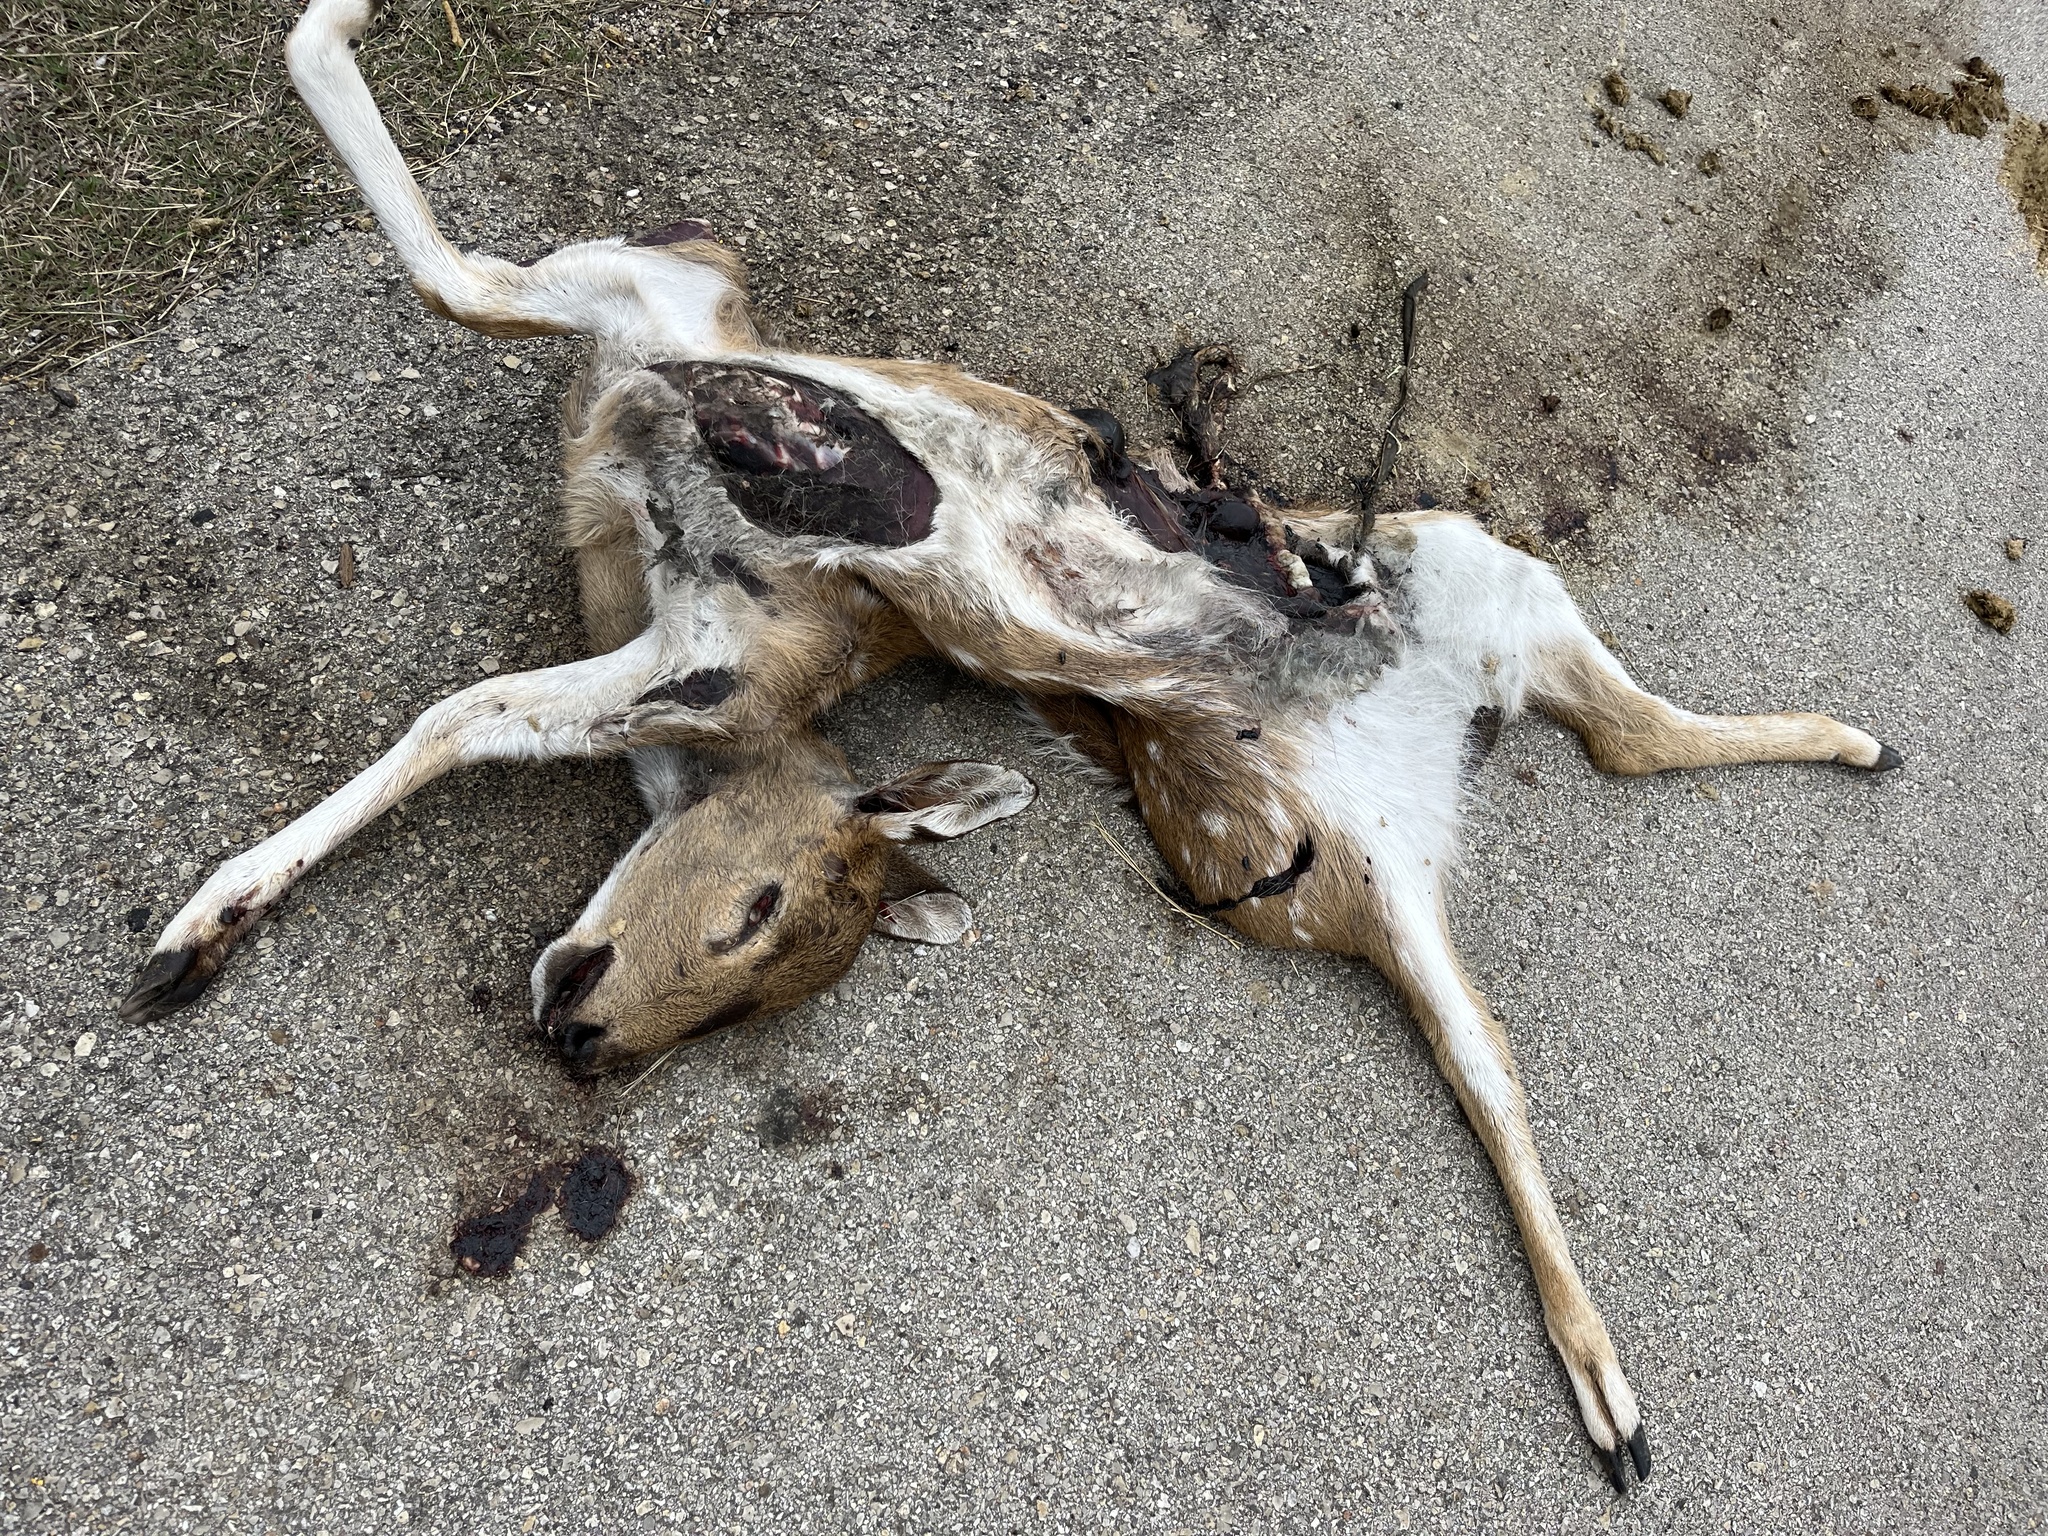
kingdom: Animalia
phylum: Chordata
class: Mammalia
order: Artiodactyla
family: Cervidae
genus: Axis
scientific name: Axis axis
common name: Chital
